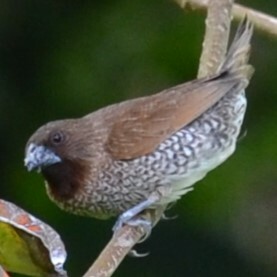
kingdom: Animalia
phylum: Chordata
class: Aves
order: Passeriformes
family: Estrildidae
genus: Lonchura
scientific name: Lonchura punctulata
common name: Scaly-breasted munia
